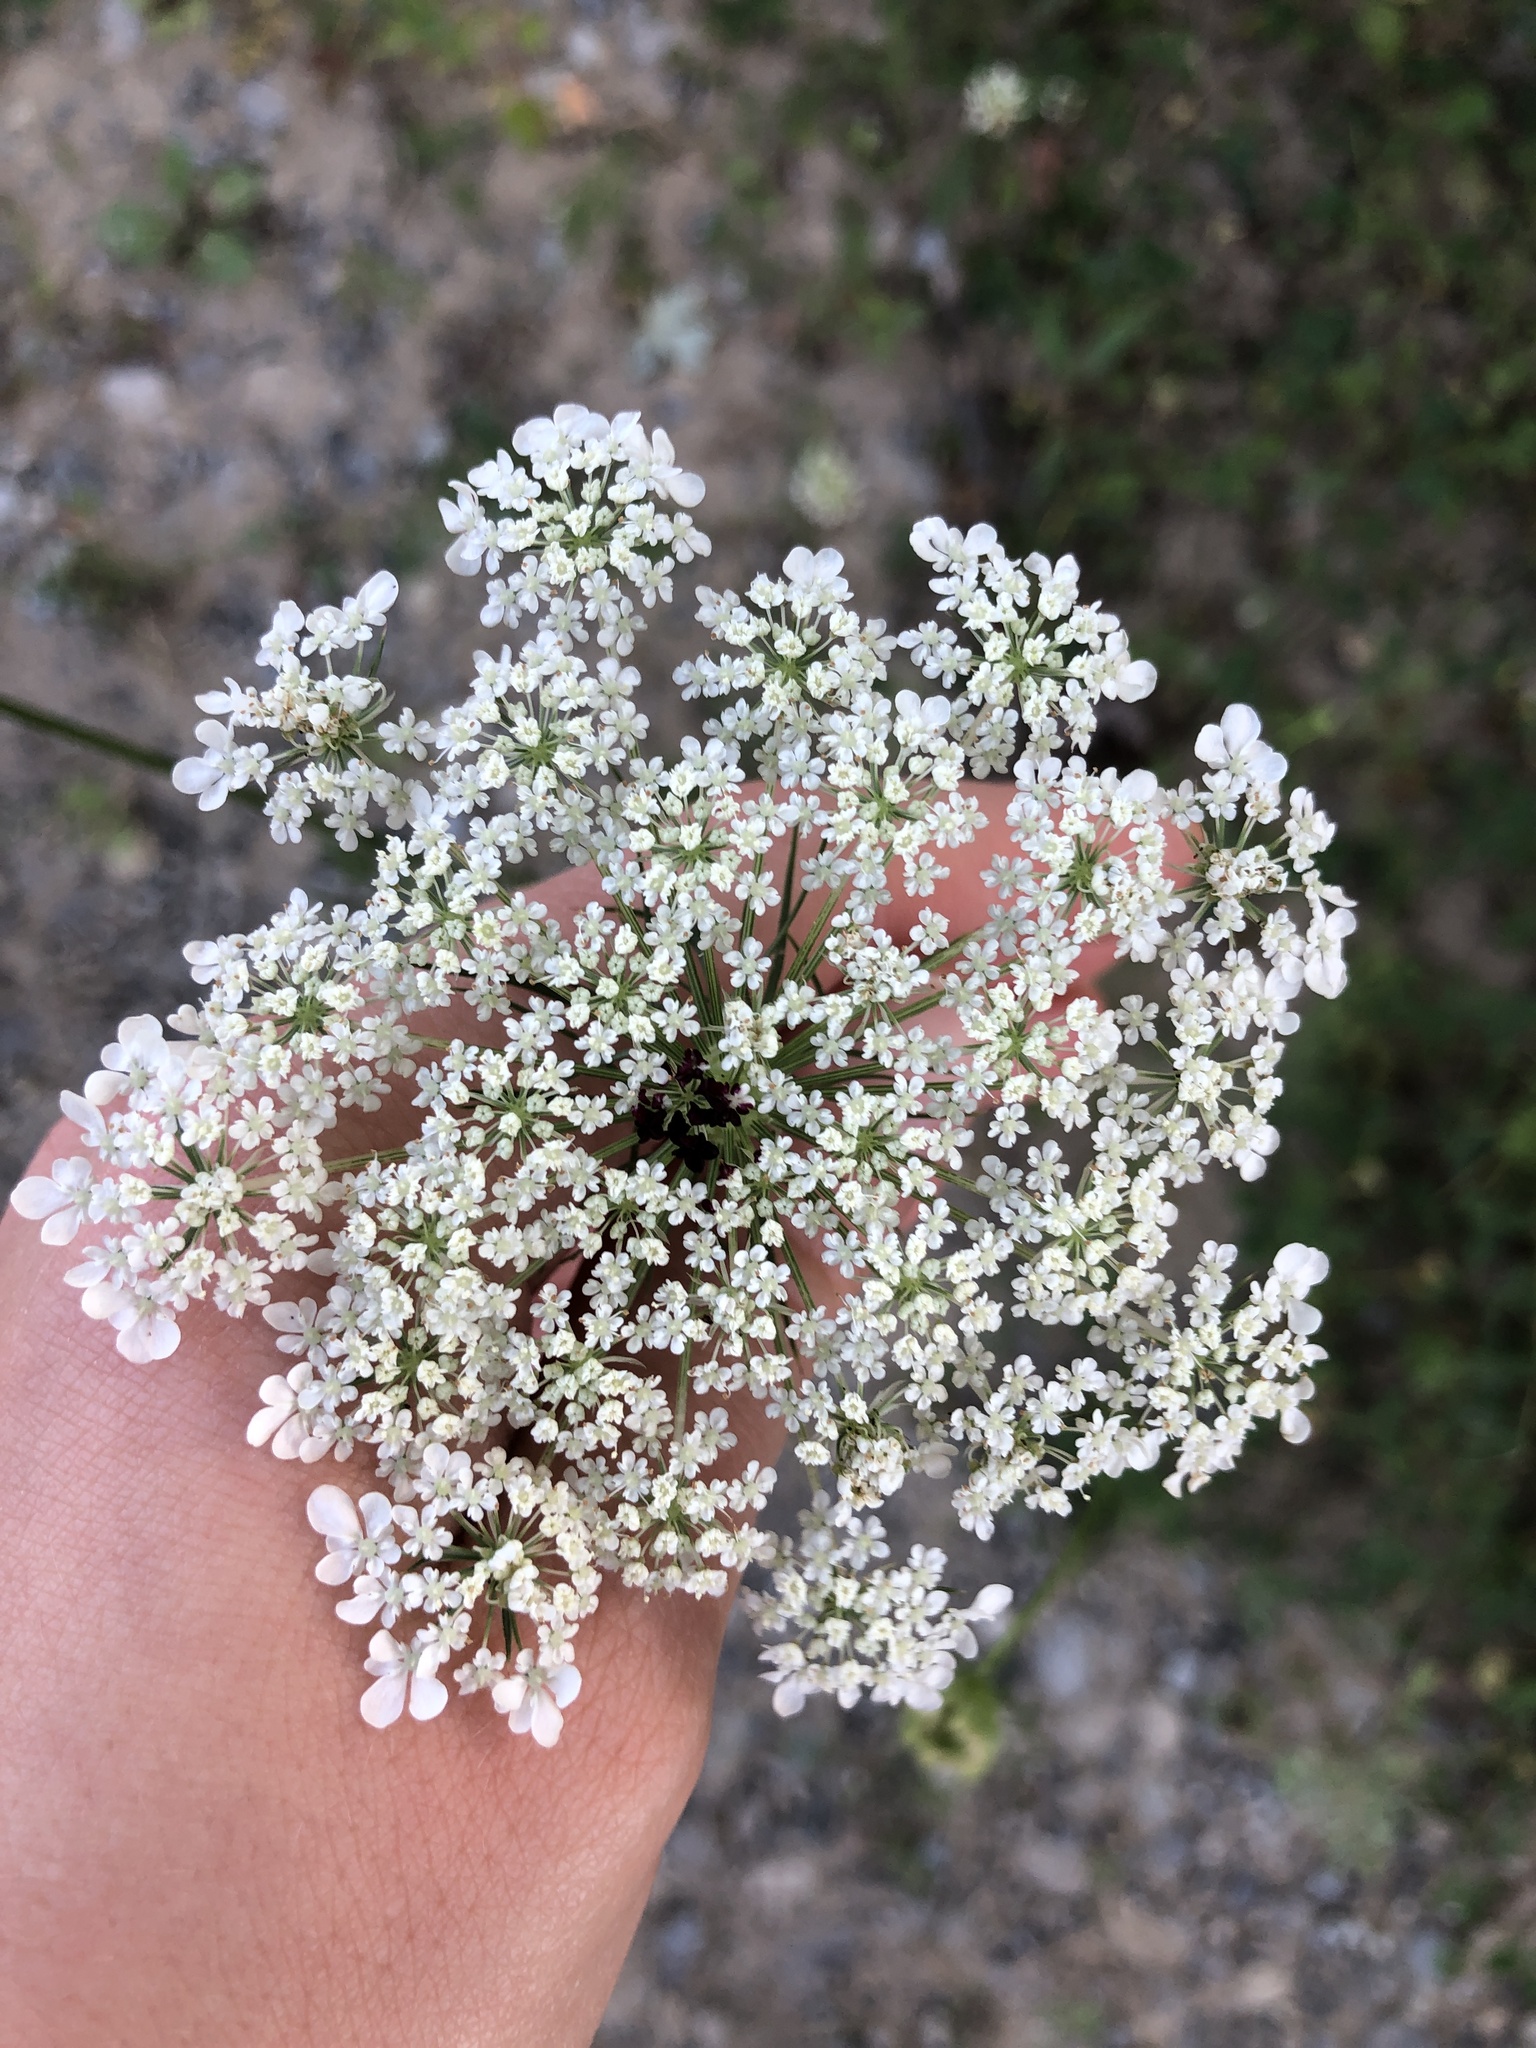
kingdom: Plantae
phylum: Tracheophyta
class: Magnoliopsida
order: Apiales
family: Apiaceae
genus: Daucus
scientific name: Daucus carota
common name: Wild carrot
